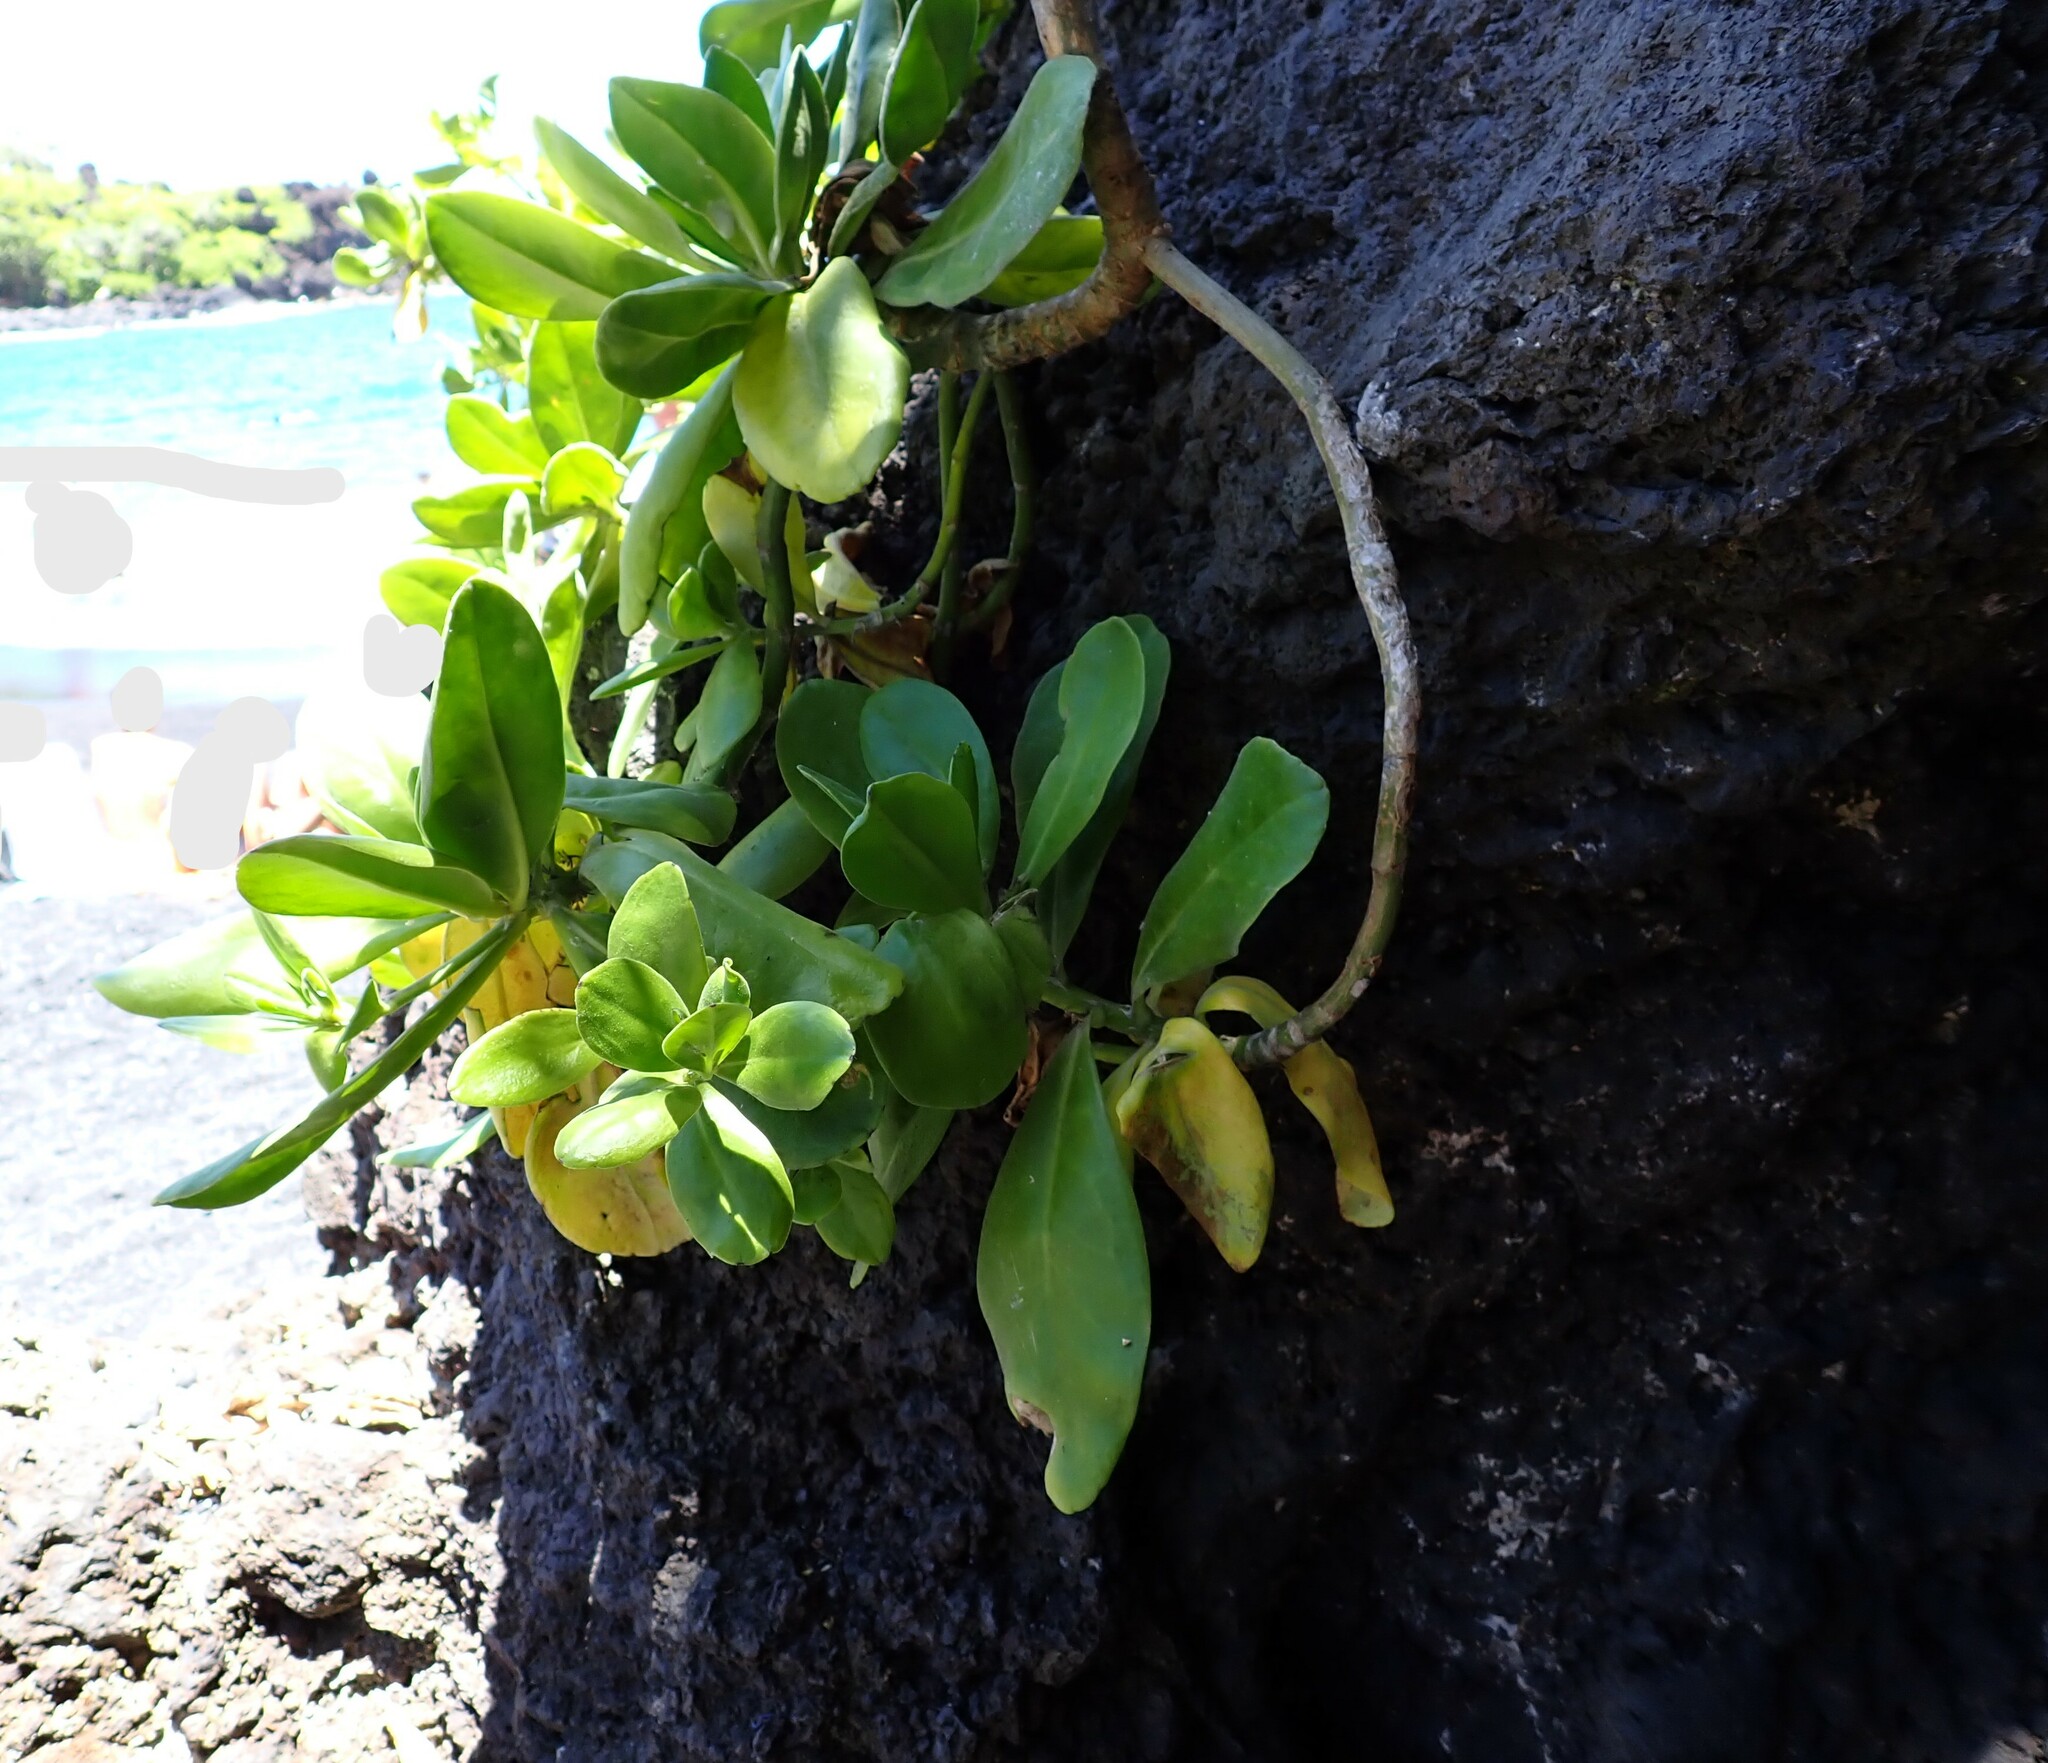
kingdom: Plantae
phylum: Tracheophyta
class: Magnoliopsida
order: Asterales
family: Goodeniaceae
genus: Scaevola
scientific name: Scaevola taccada
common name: Sea lettucetree
